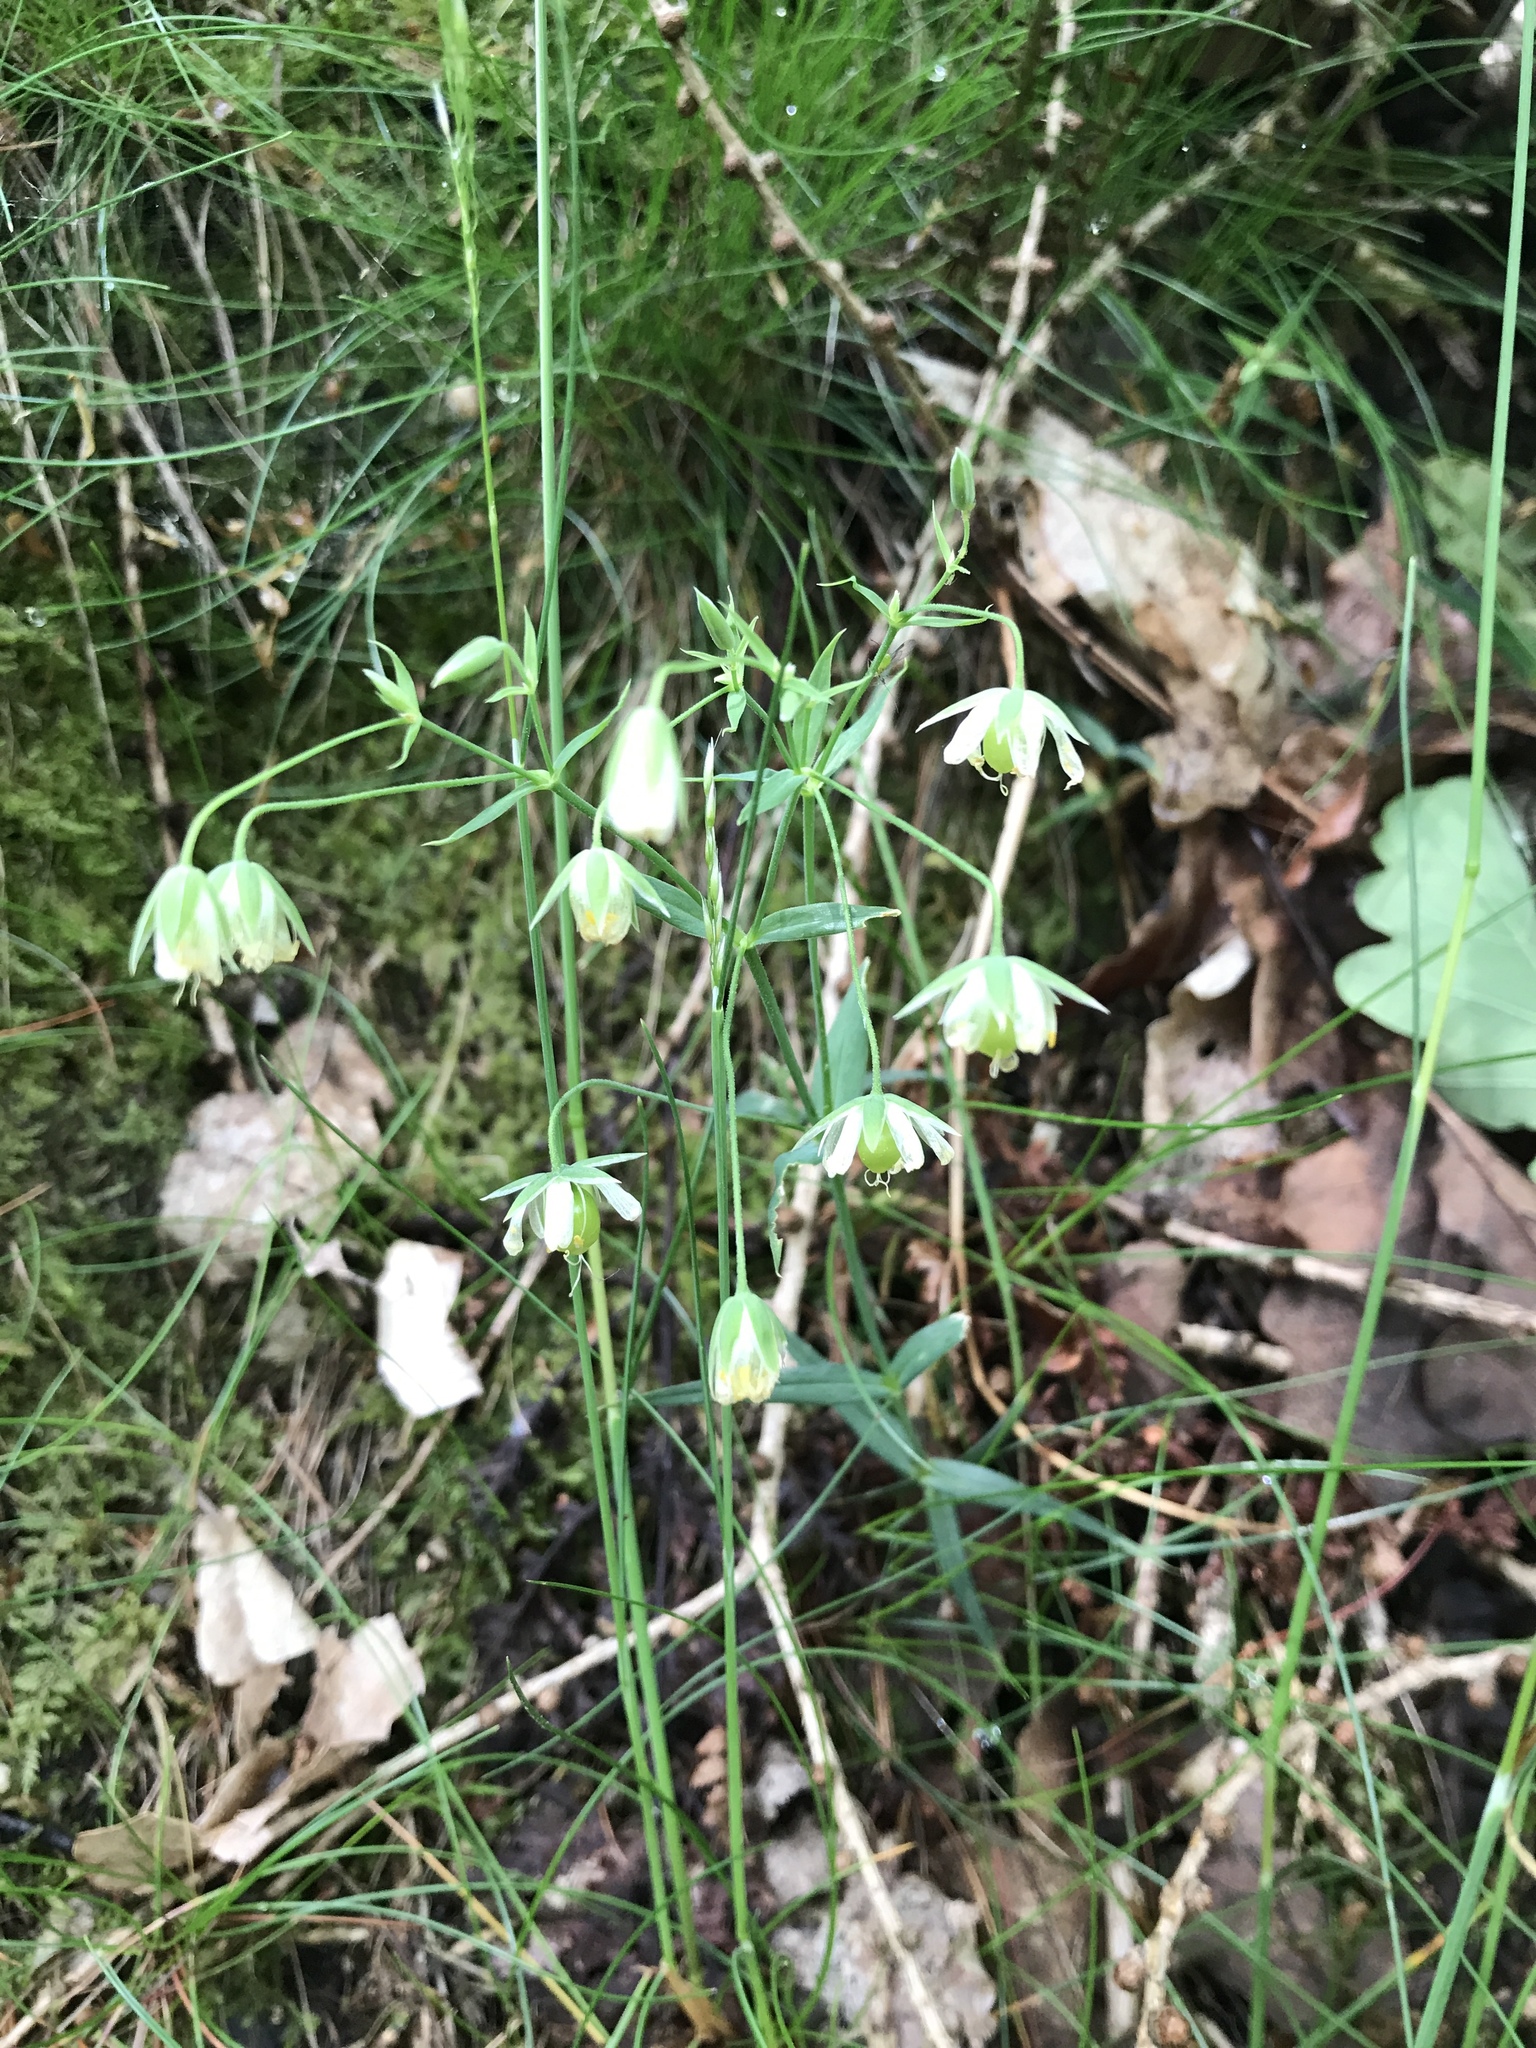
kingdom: Plantae
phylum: Tracheophyta
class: Magnoliopsida
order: Caryophyllales
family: Caryophyllaceae
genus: Rabelera
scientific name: Rabelera holostea
